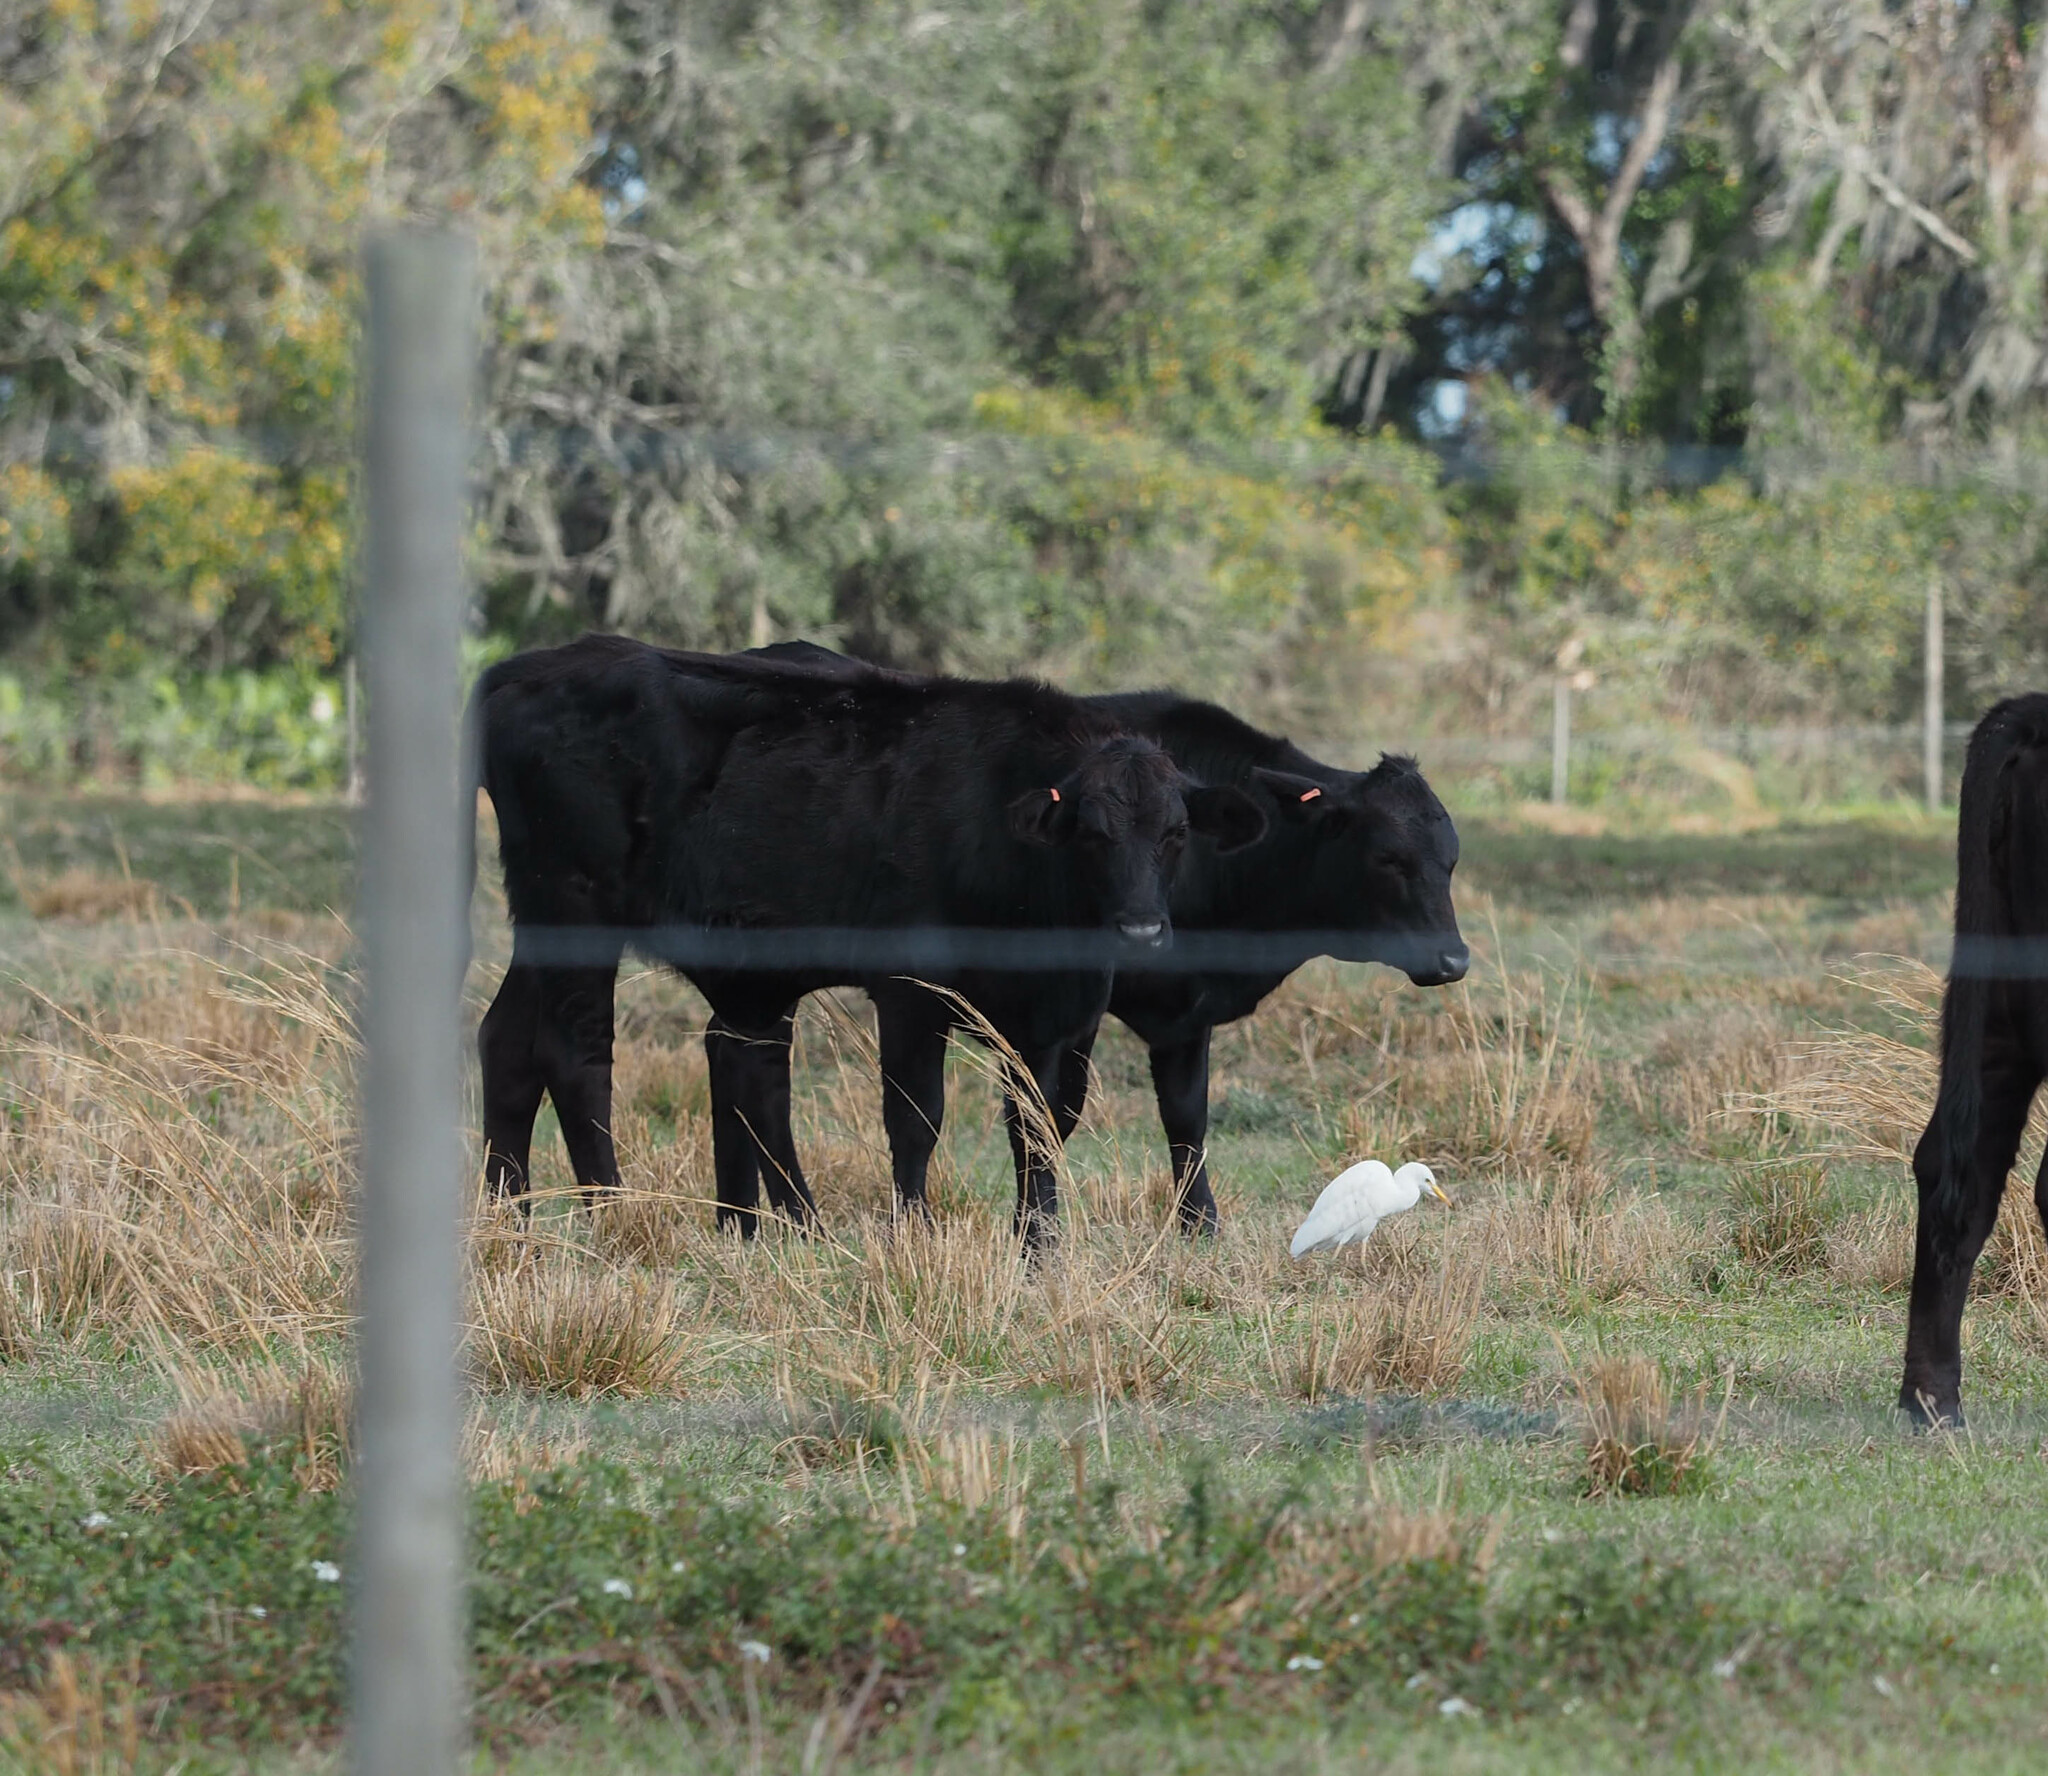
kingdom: Animalia
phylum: Chordata
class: Aves
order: Pelecaniformes
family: Ardeidae
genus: Bubulcus
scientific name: Bubulcus ibis
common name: Cattle egret
